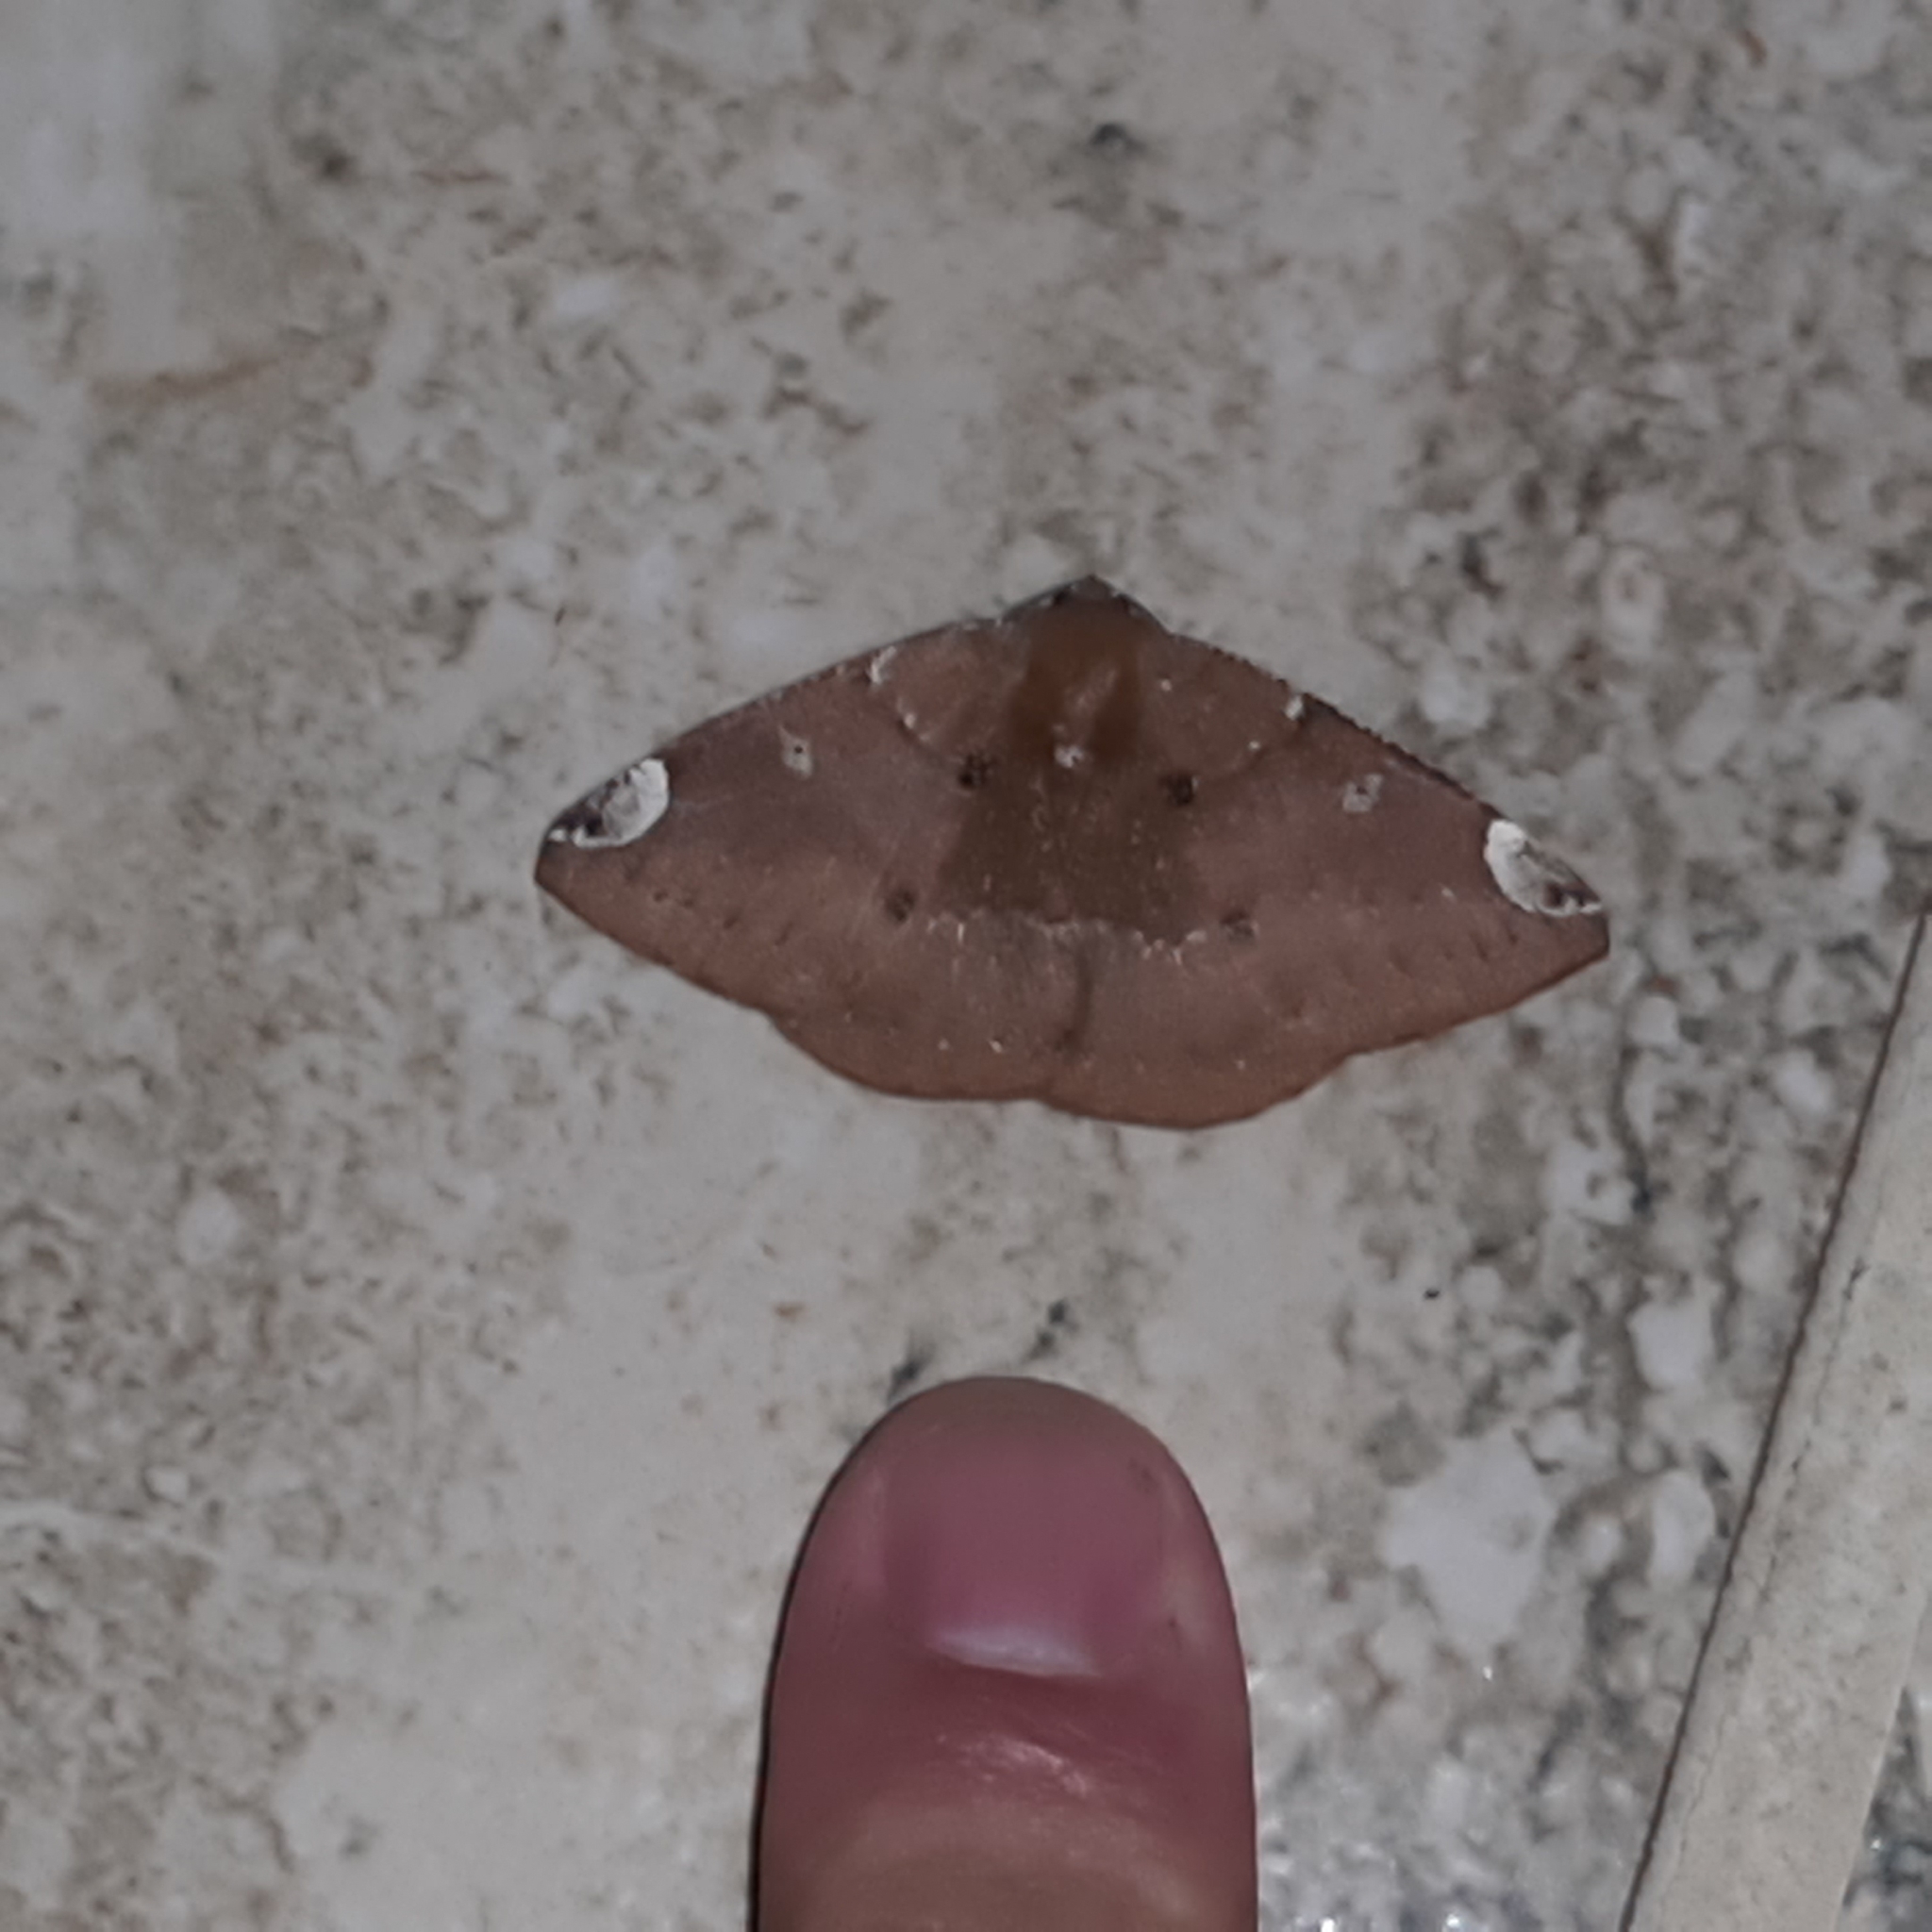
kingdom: Animalia
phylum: Arthropoda
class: Insecta
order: Lepidoptera
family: Geometridae
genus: Herbita
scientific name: Herbita valtrudaria
